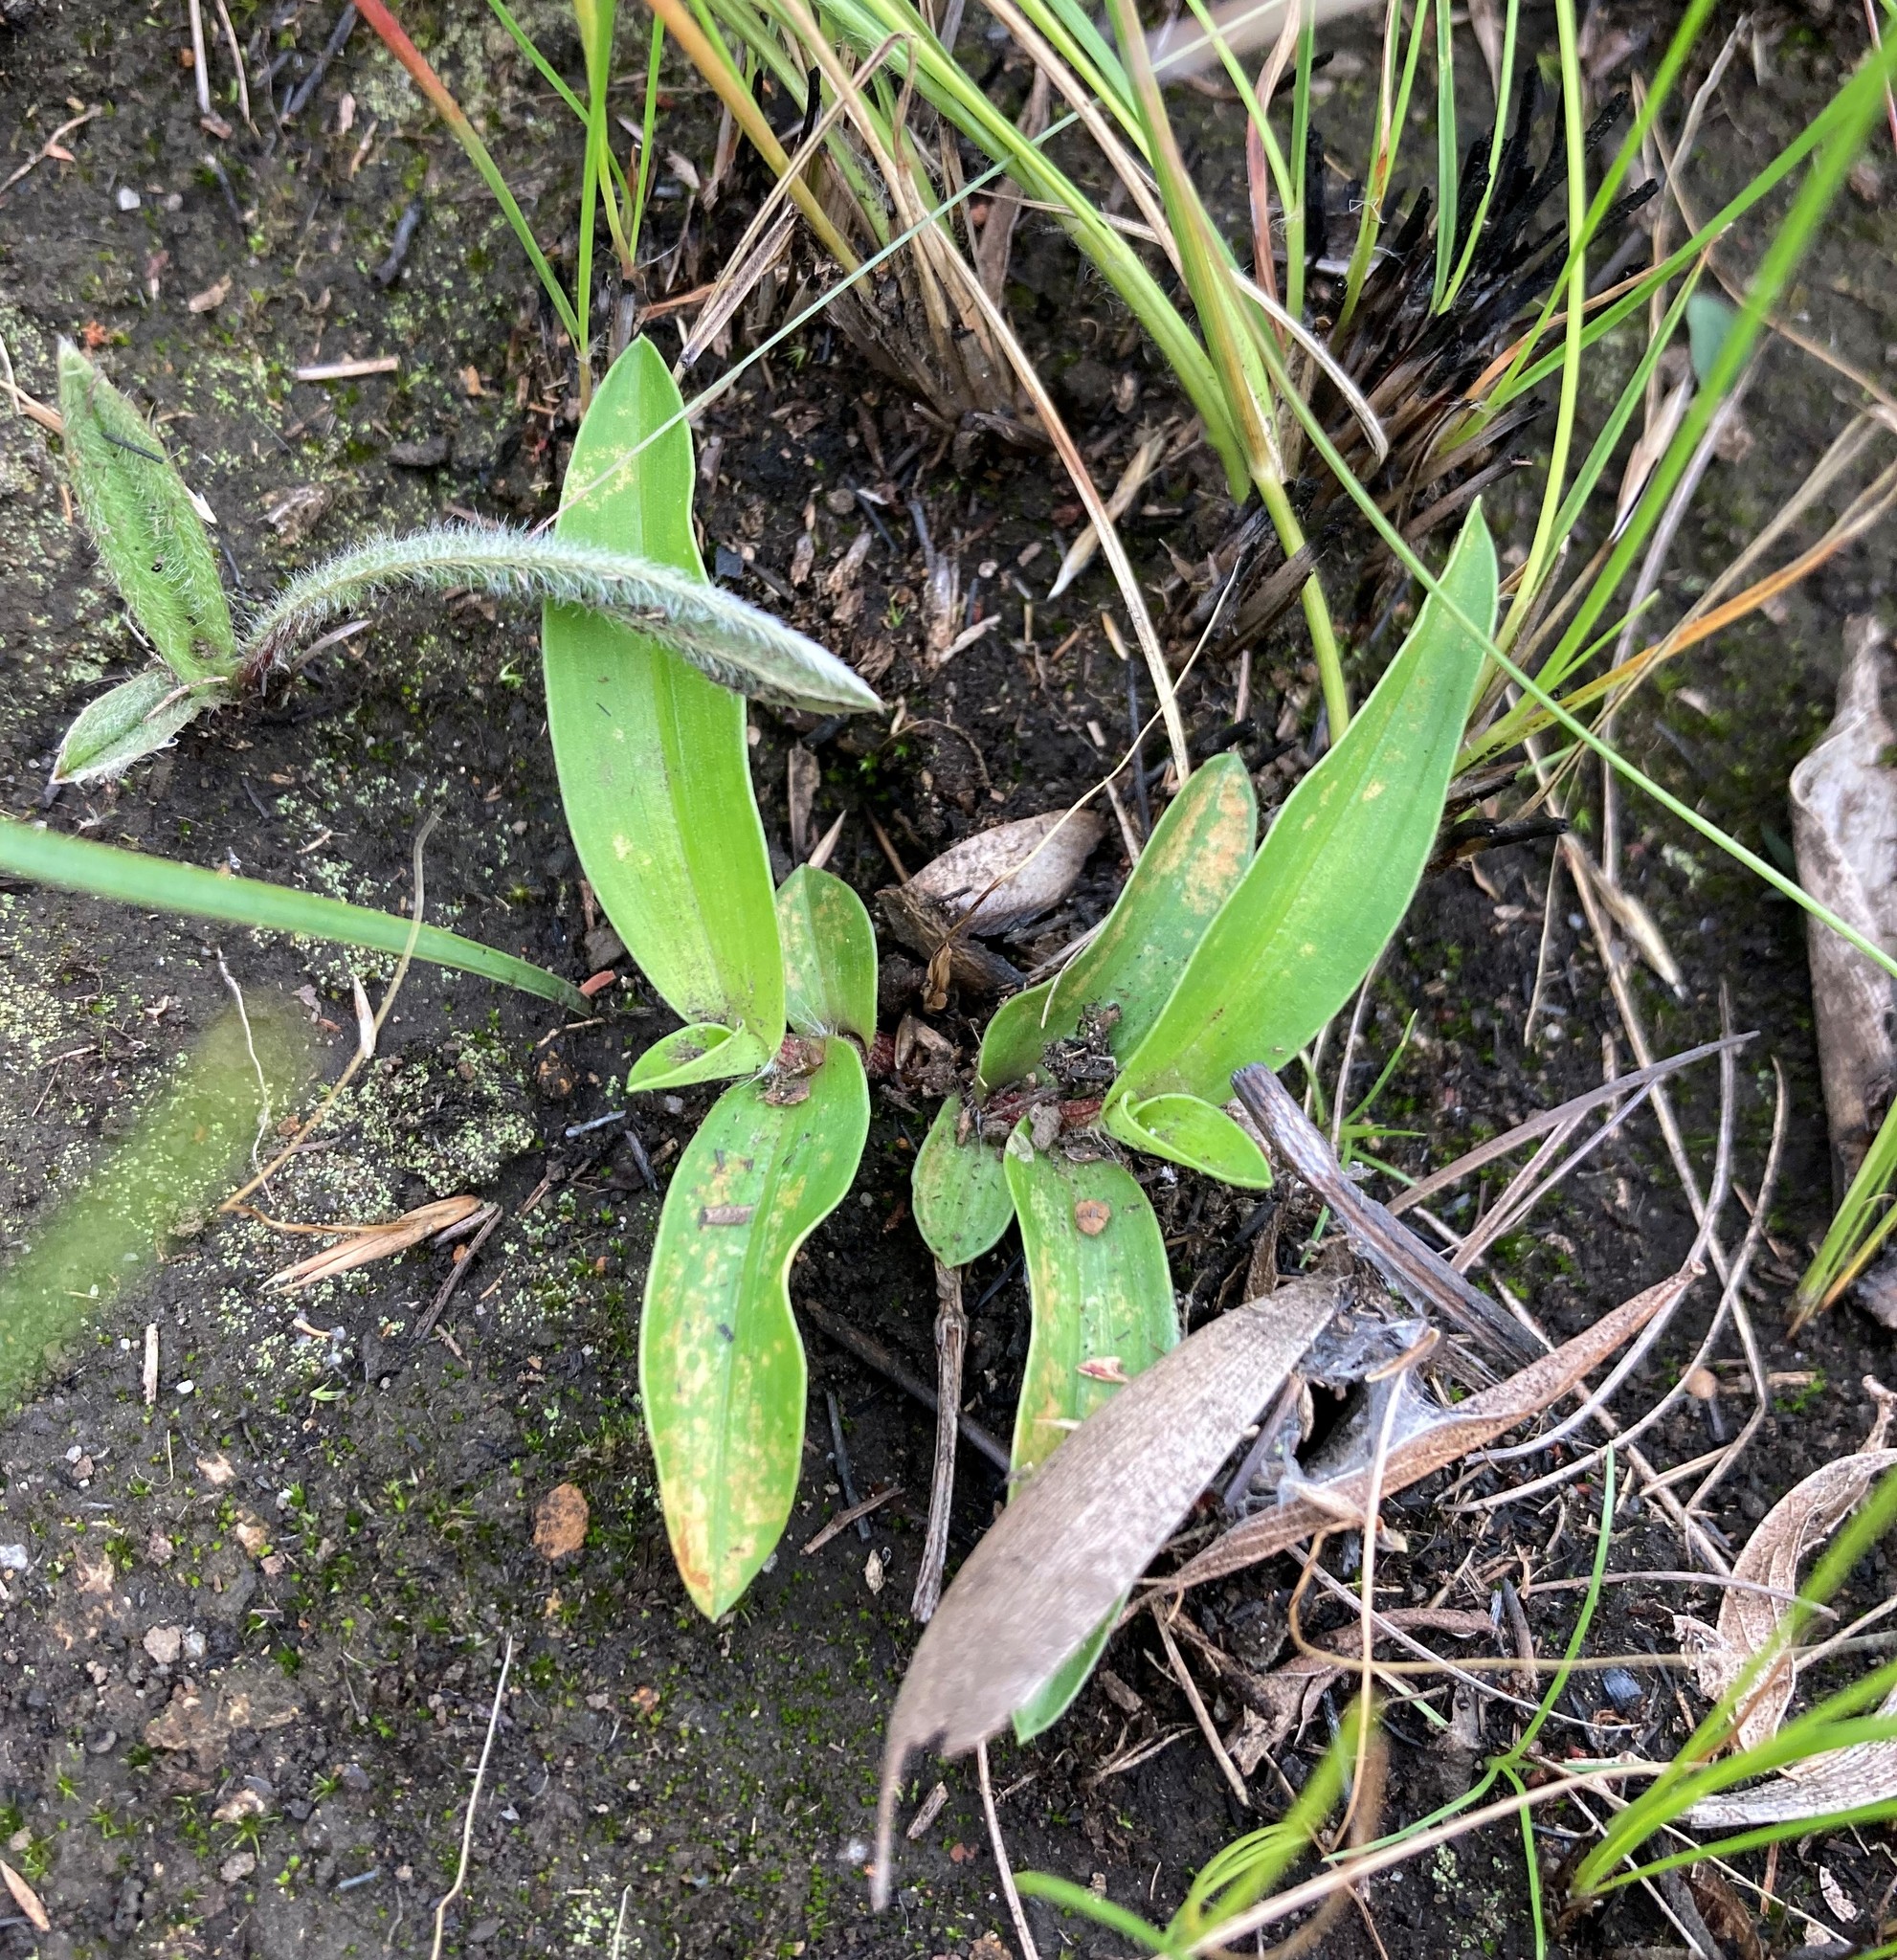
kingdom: Plantae
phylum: Tracheophyta
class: Liliopsida
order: Commelinales
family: Commelinaceae
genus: Commelina
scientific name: Commelina africana
